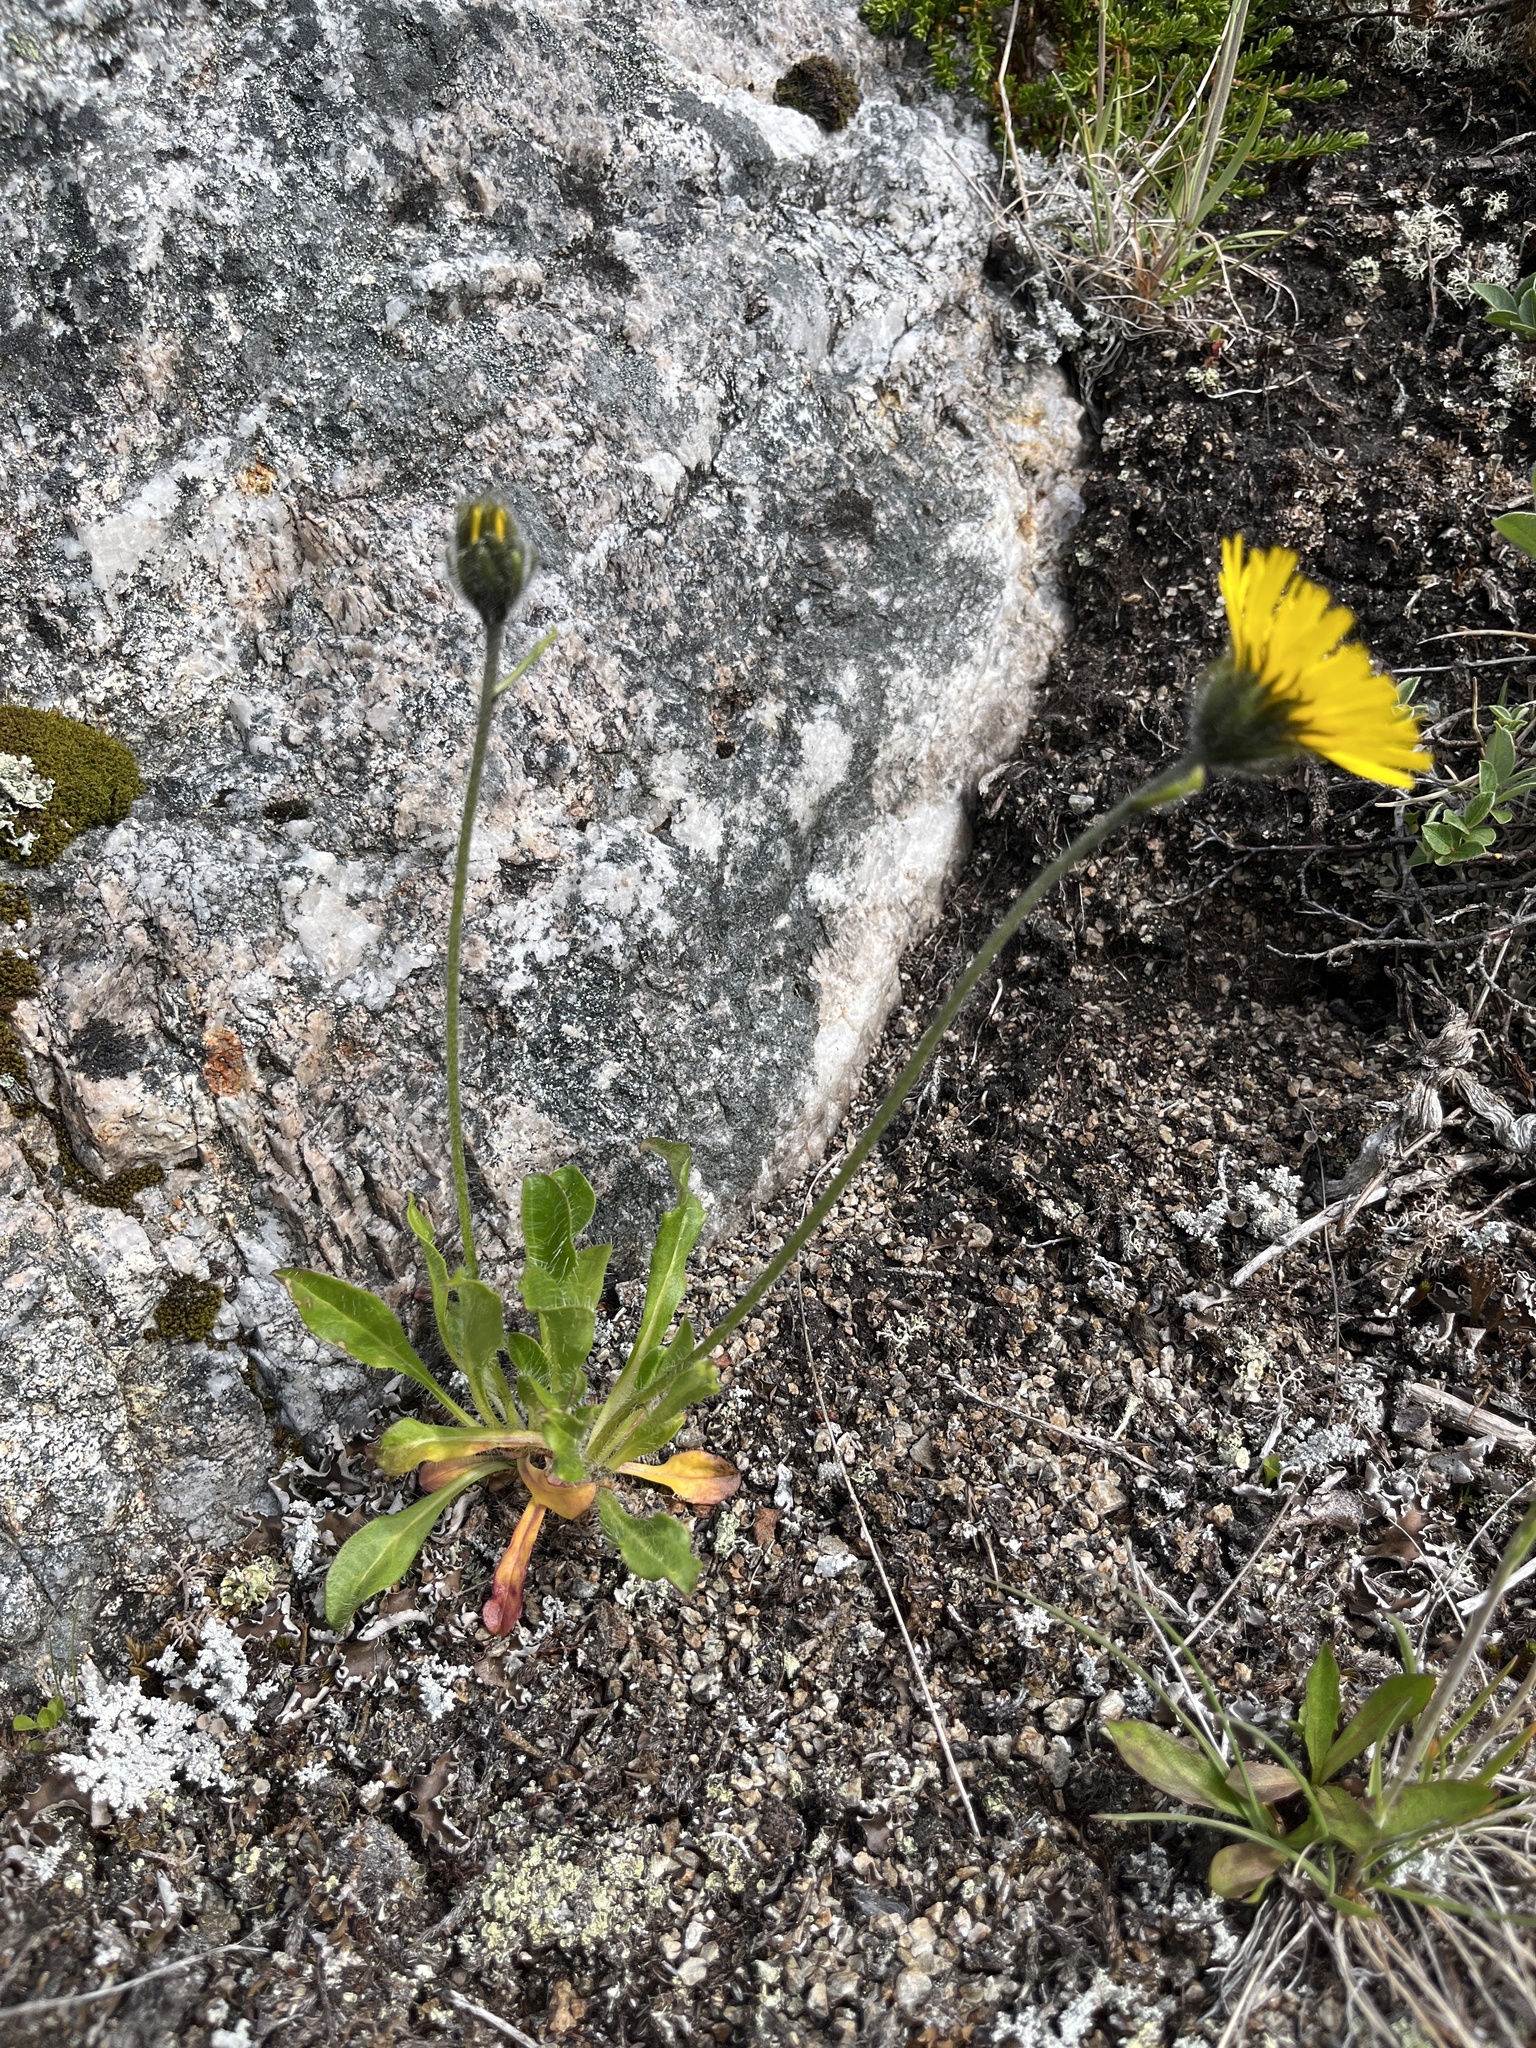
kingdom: Plantae
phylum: Tracheophyta
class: Magnoliopsida
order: Asterales
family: Asteraceae
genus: Hieracium
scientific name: Hieracium alpinum
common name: Alpine hawkweed
